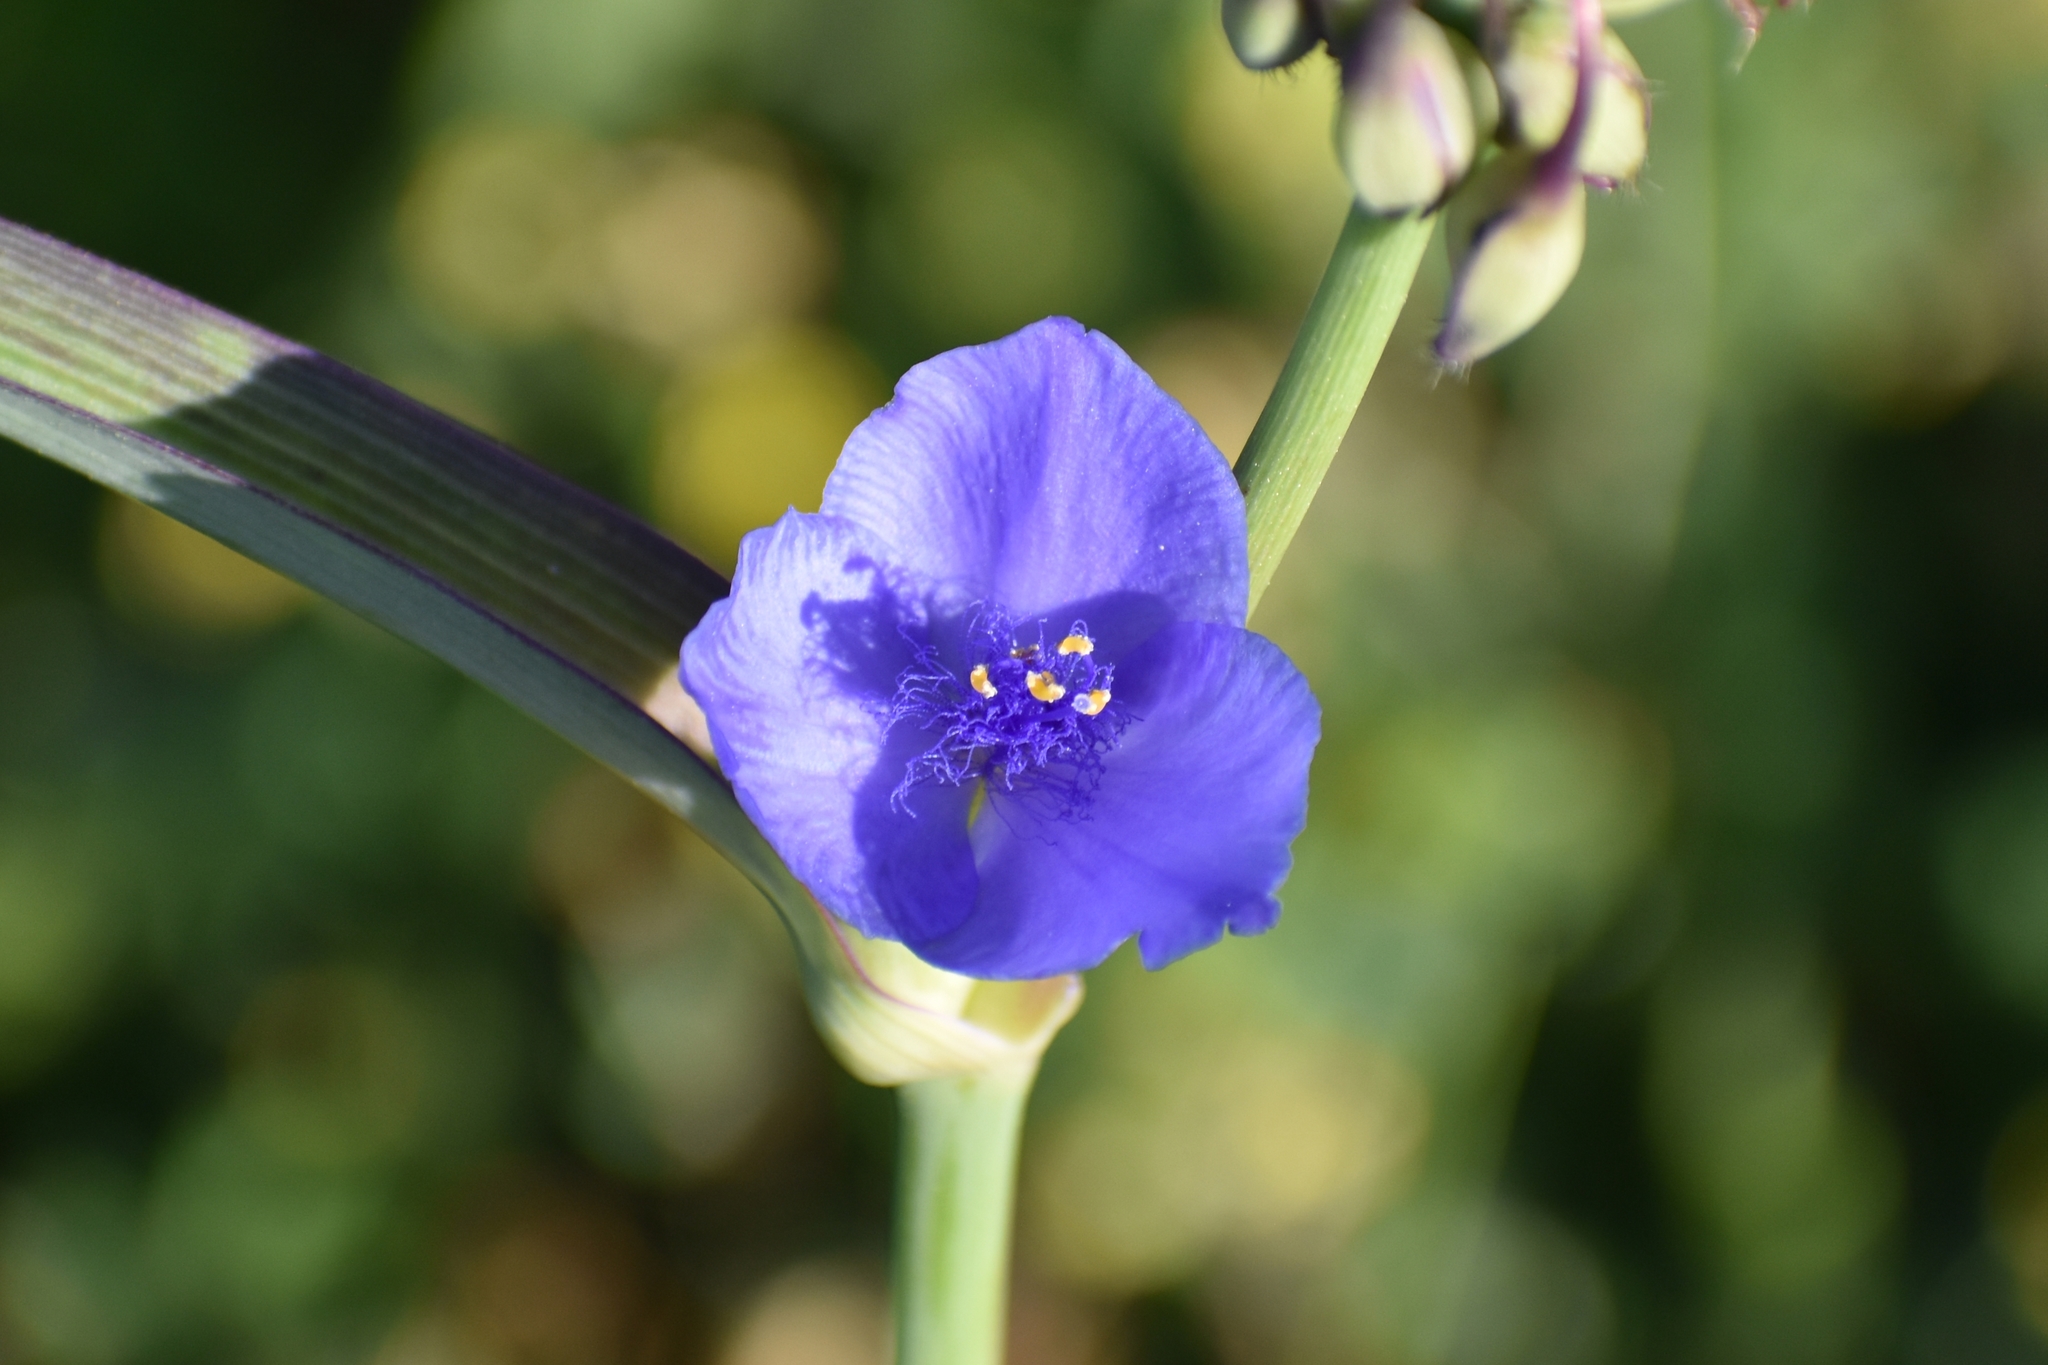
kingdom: Plantae
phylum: Tracheophyta
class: Liliopsida
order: Commelinales
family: Commelinaceae
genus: Tradescantia
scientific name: Tradescantia ohiensis
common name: Ohio spiderwort
